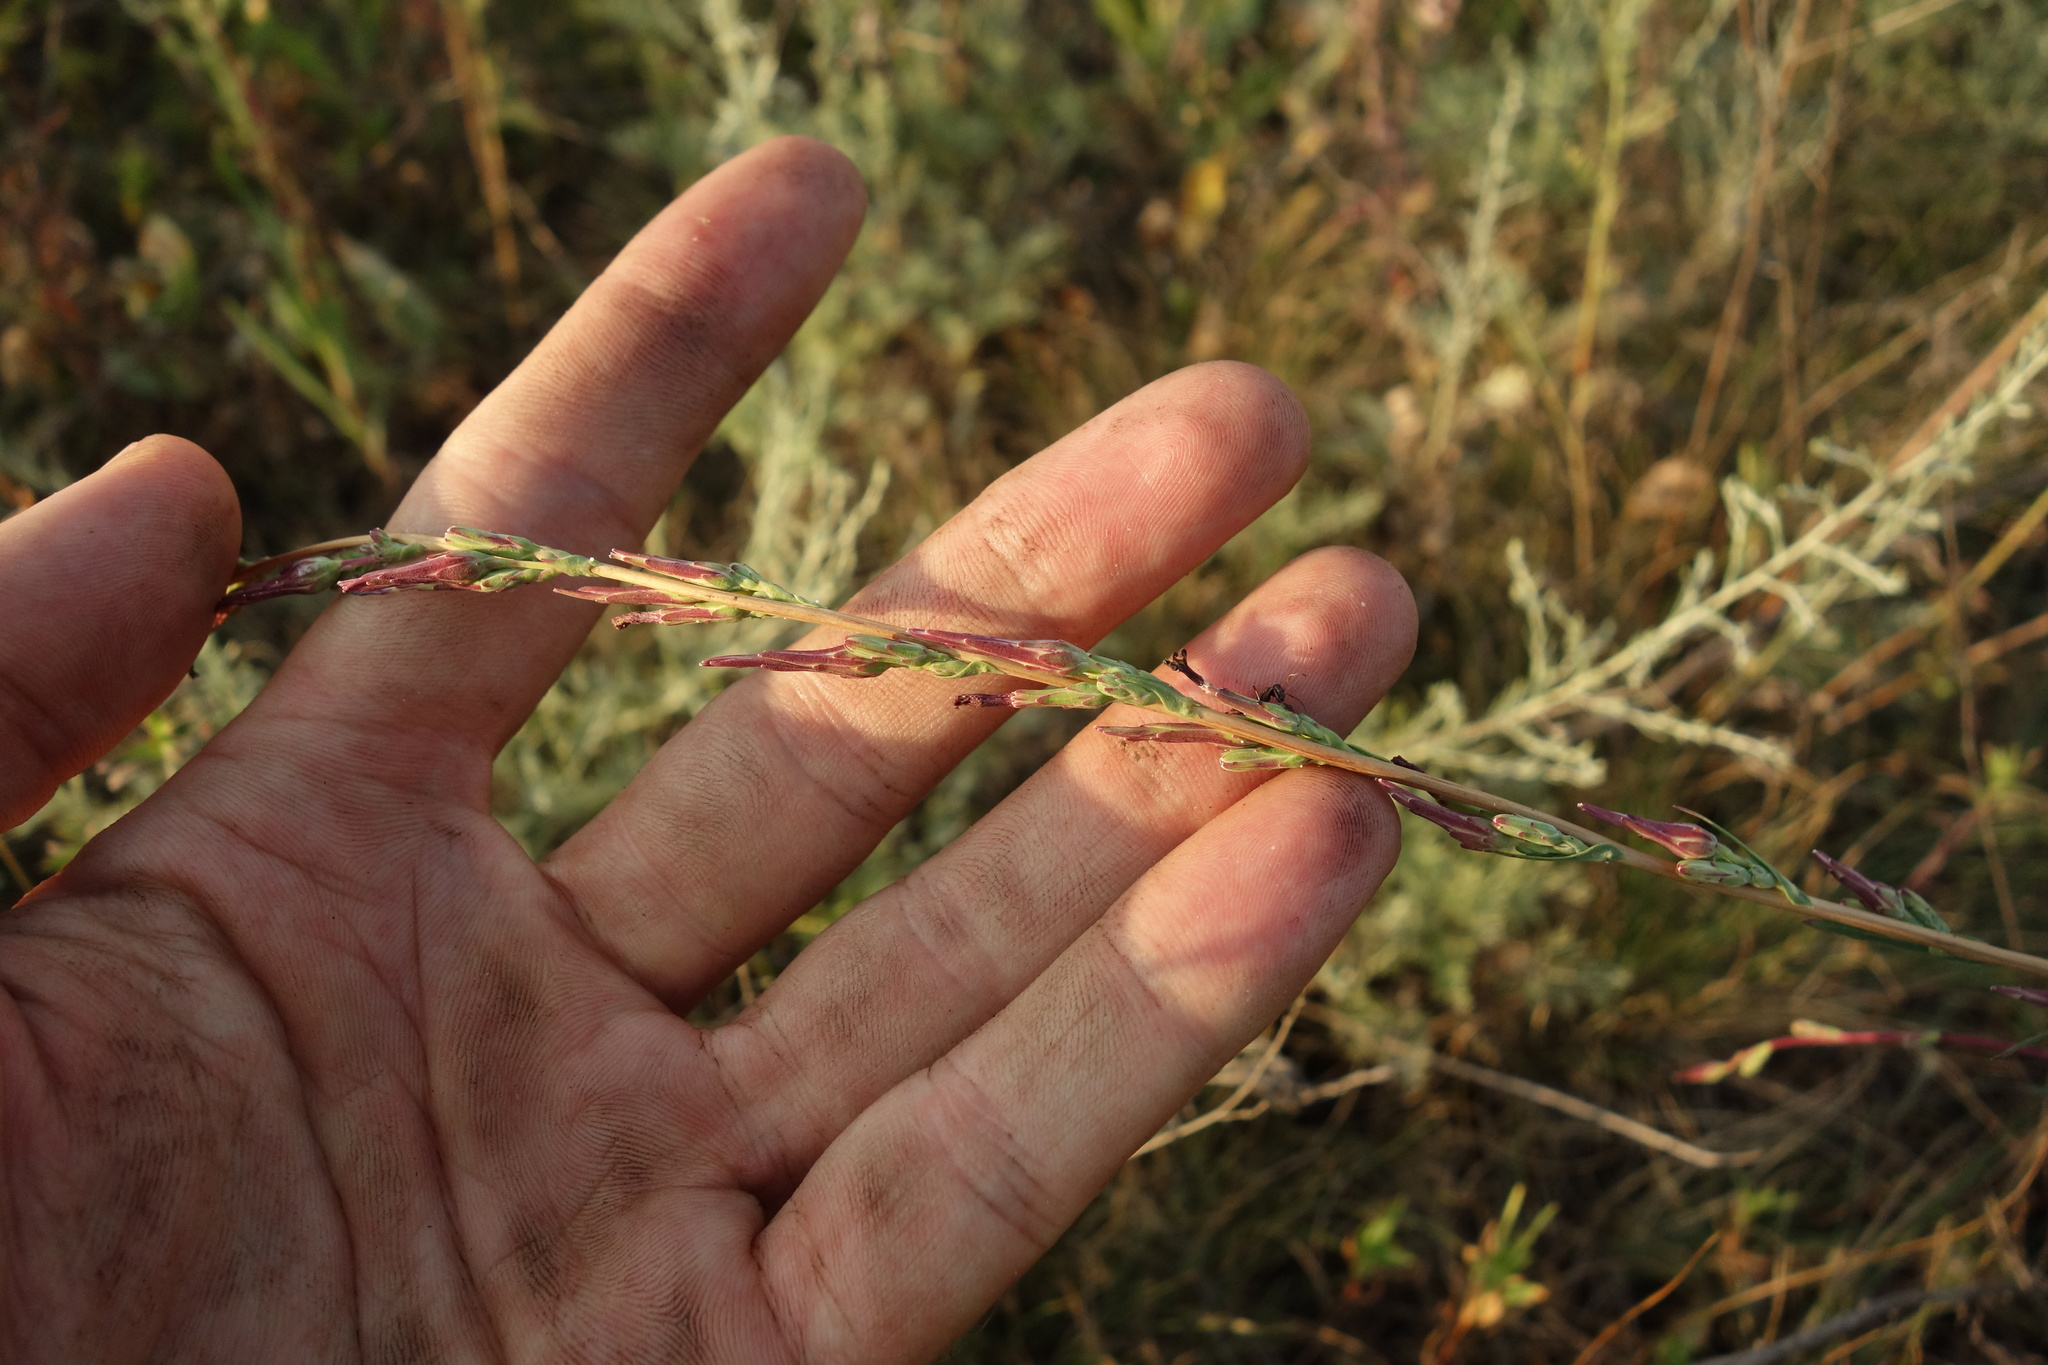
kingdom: Plantae
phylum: Tracheophyta
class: Magnoliopsida
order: Asterales
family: Asteraceae
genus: Lactuca
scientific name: Lactuca saligna
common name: Wild lettuce
